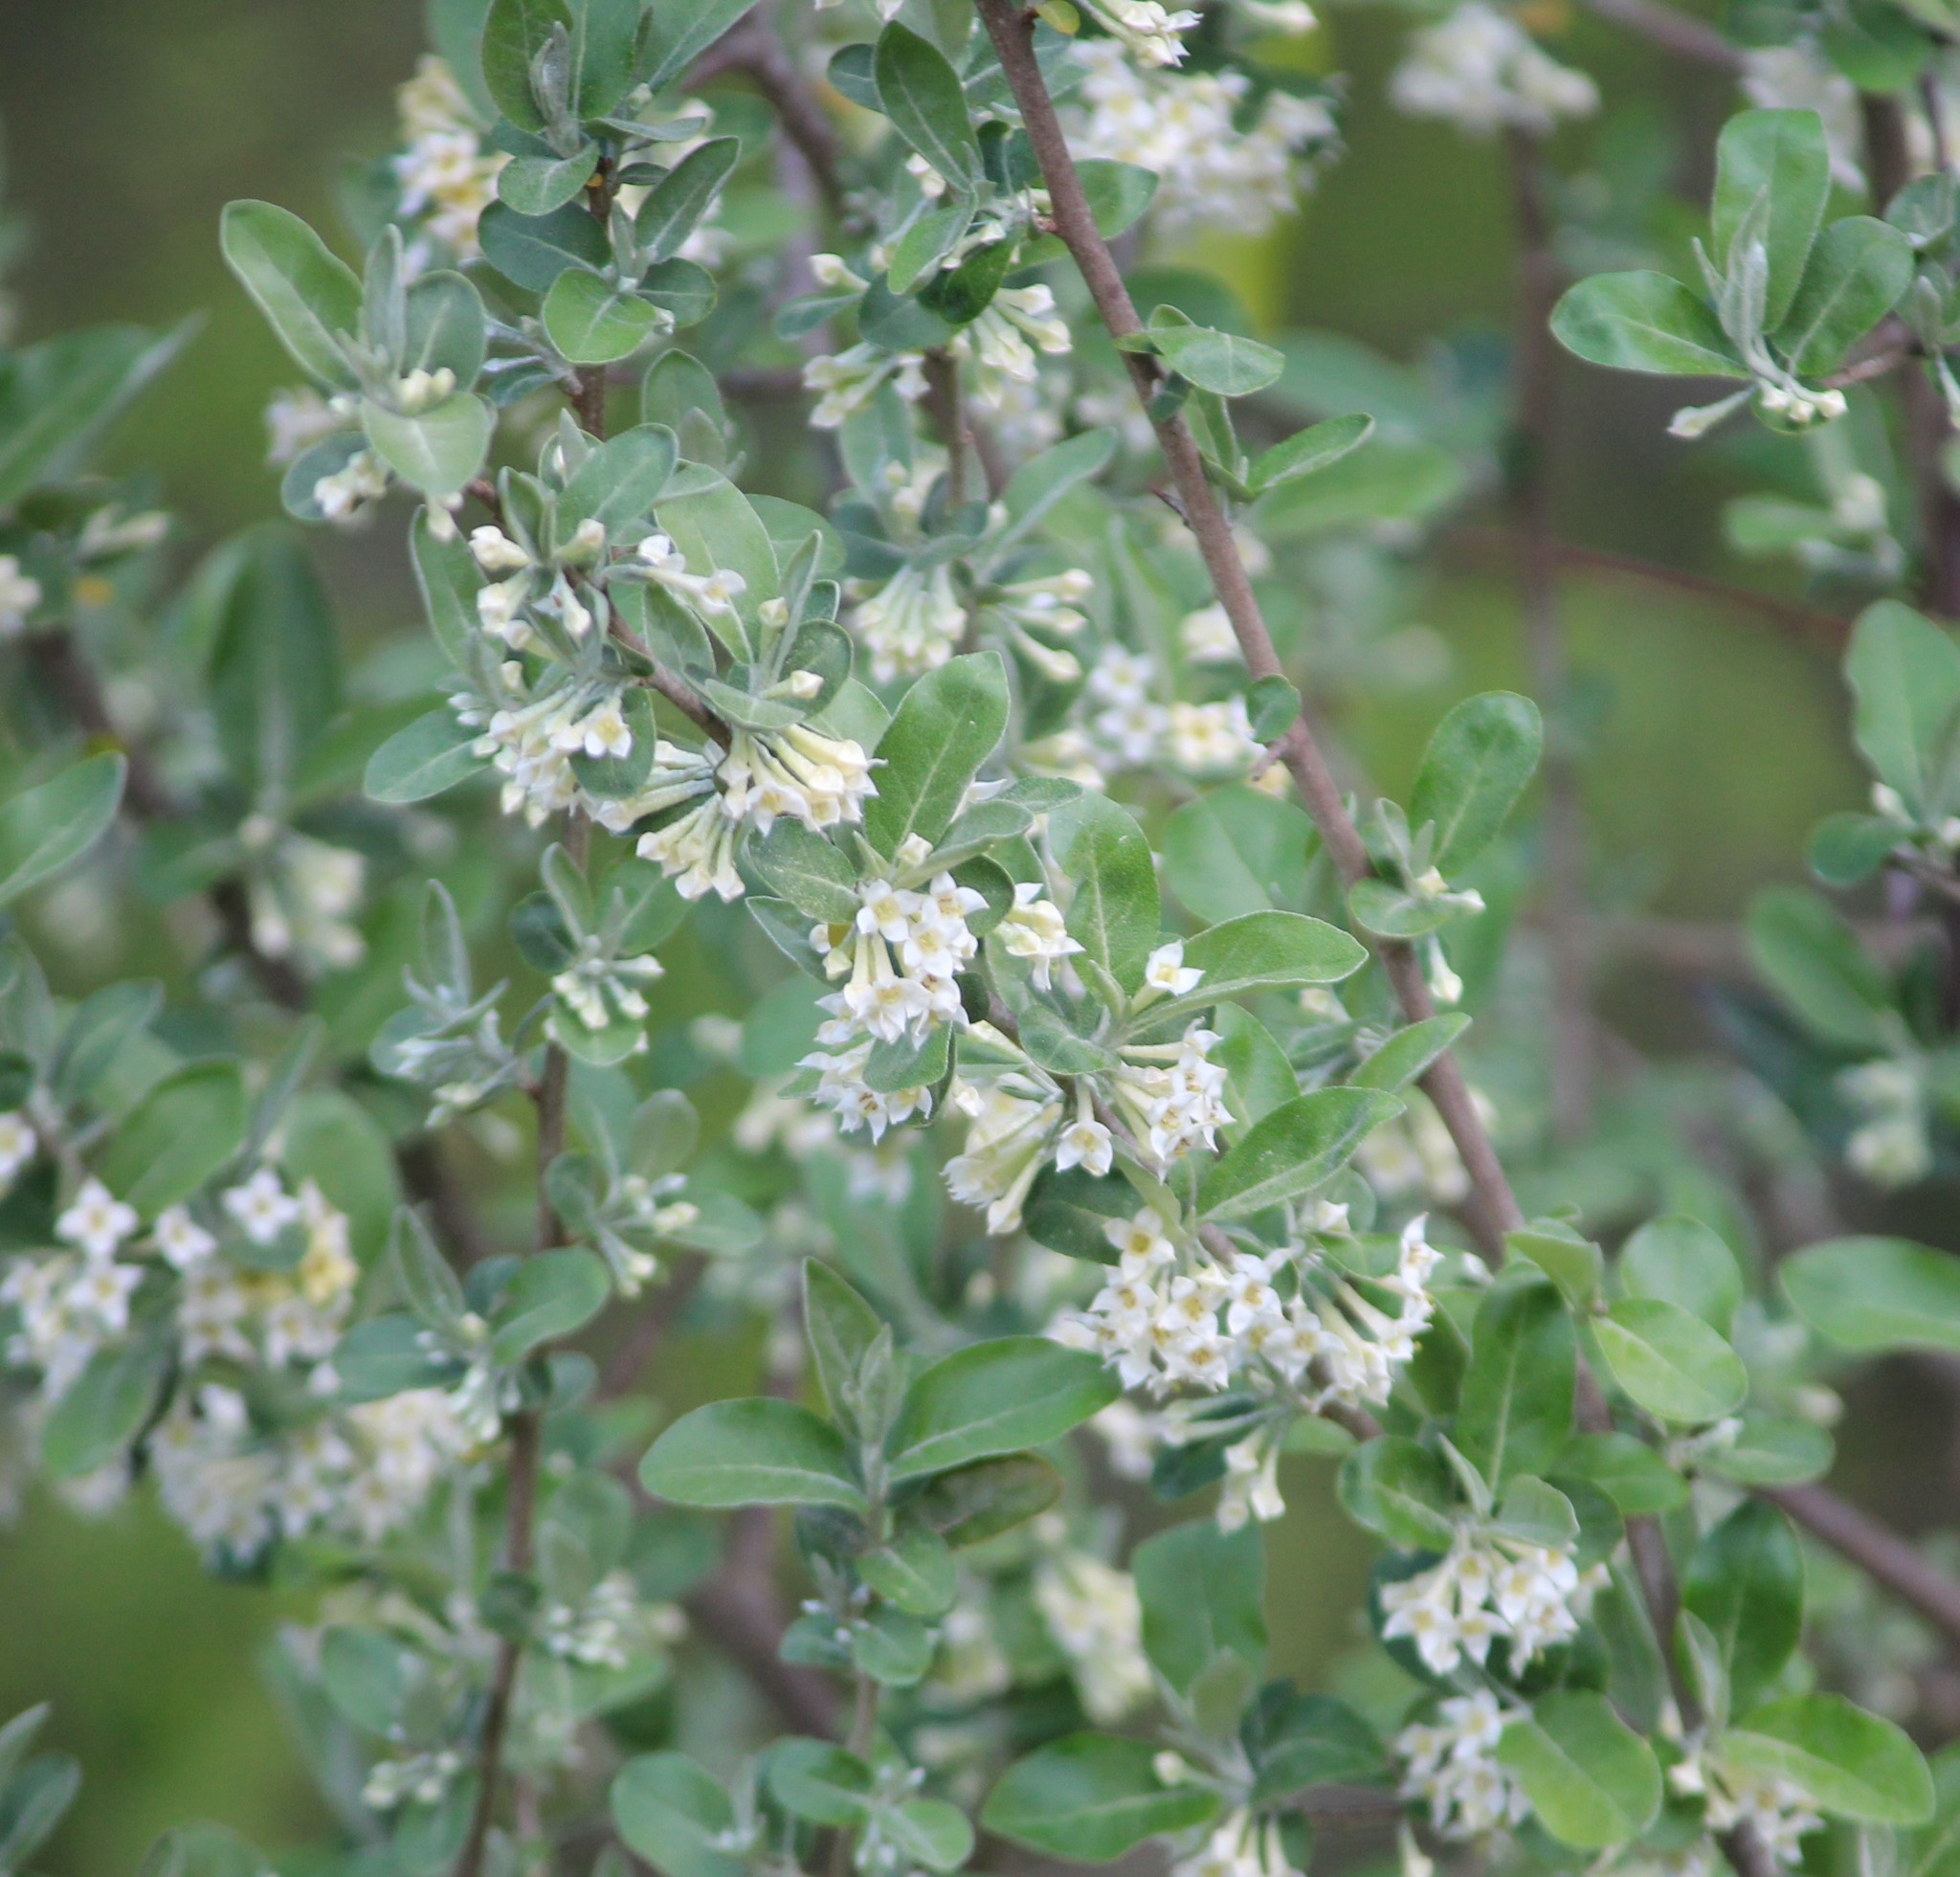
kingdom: Plantae
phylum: Tracheophyta
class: Magnoliopsida
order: Rosales
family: Elaeagnaceae
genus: Elaeagnus
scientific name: Elaeagnus umbellata
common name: Autumn olive
